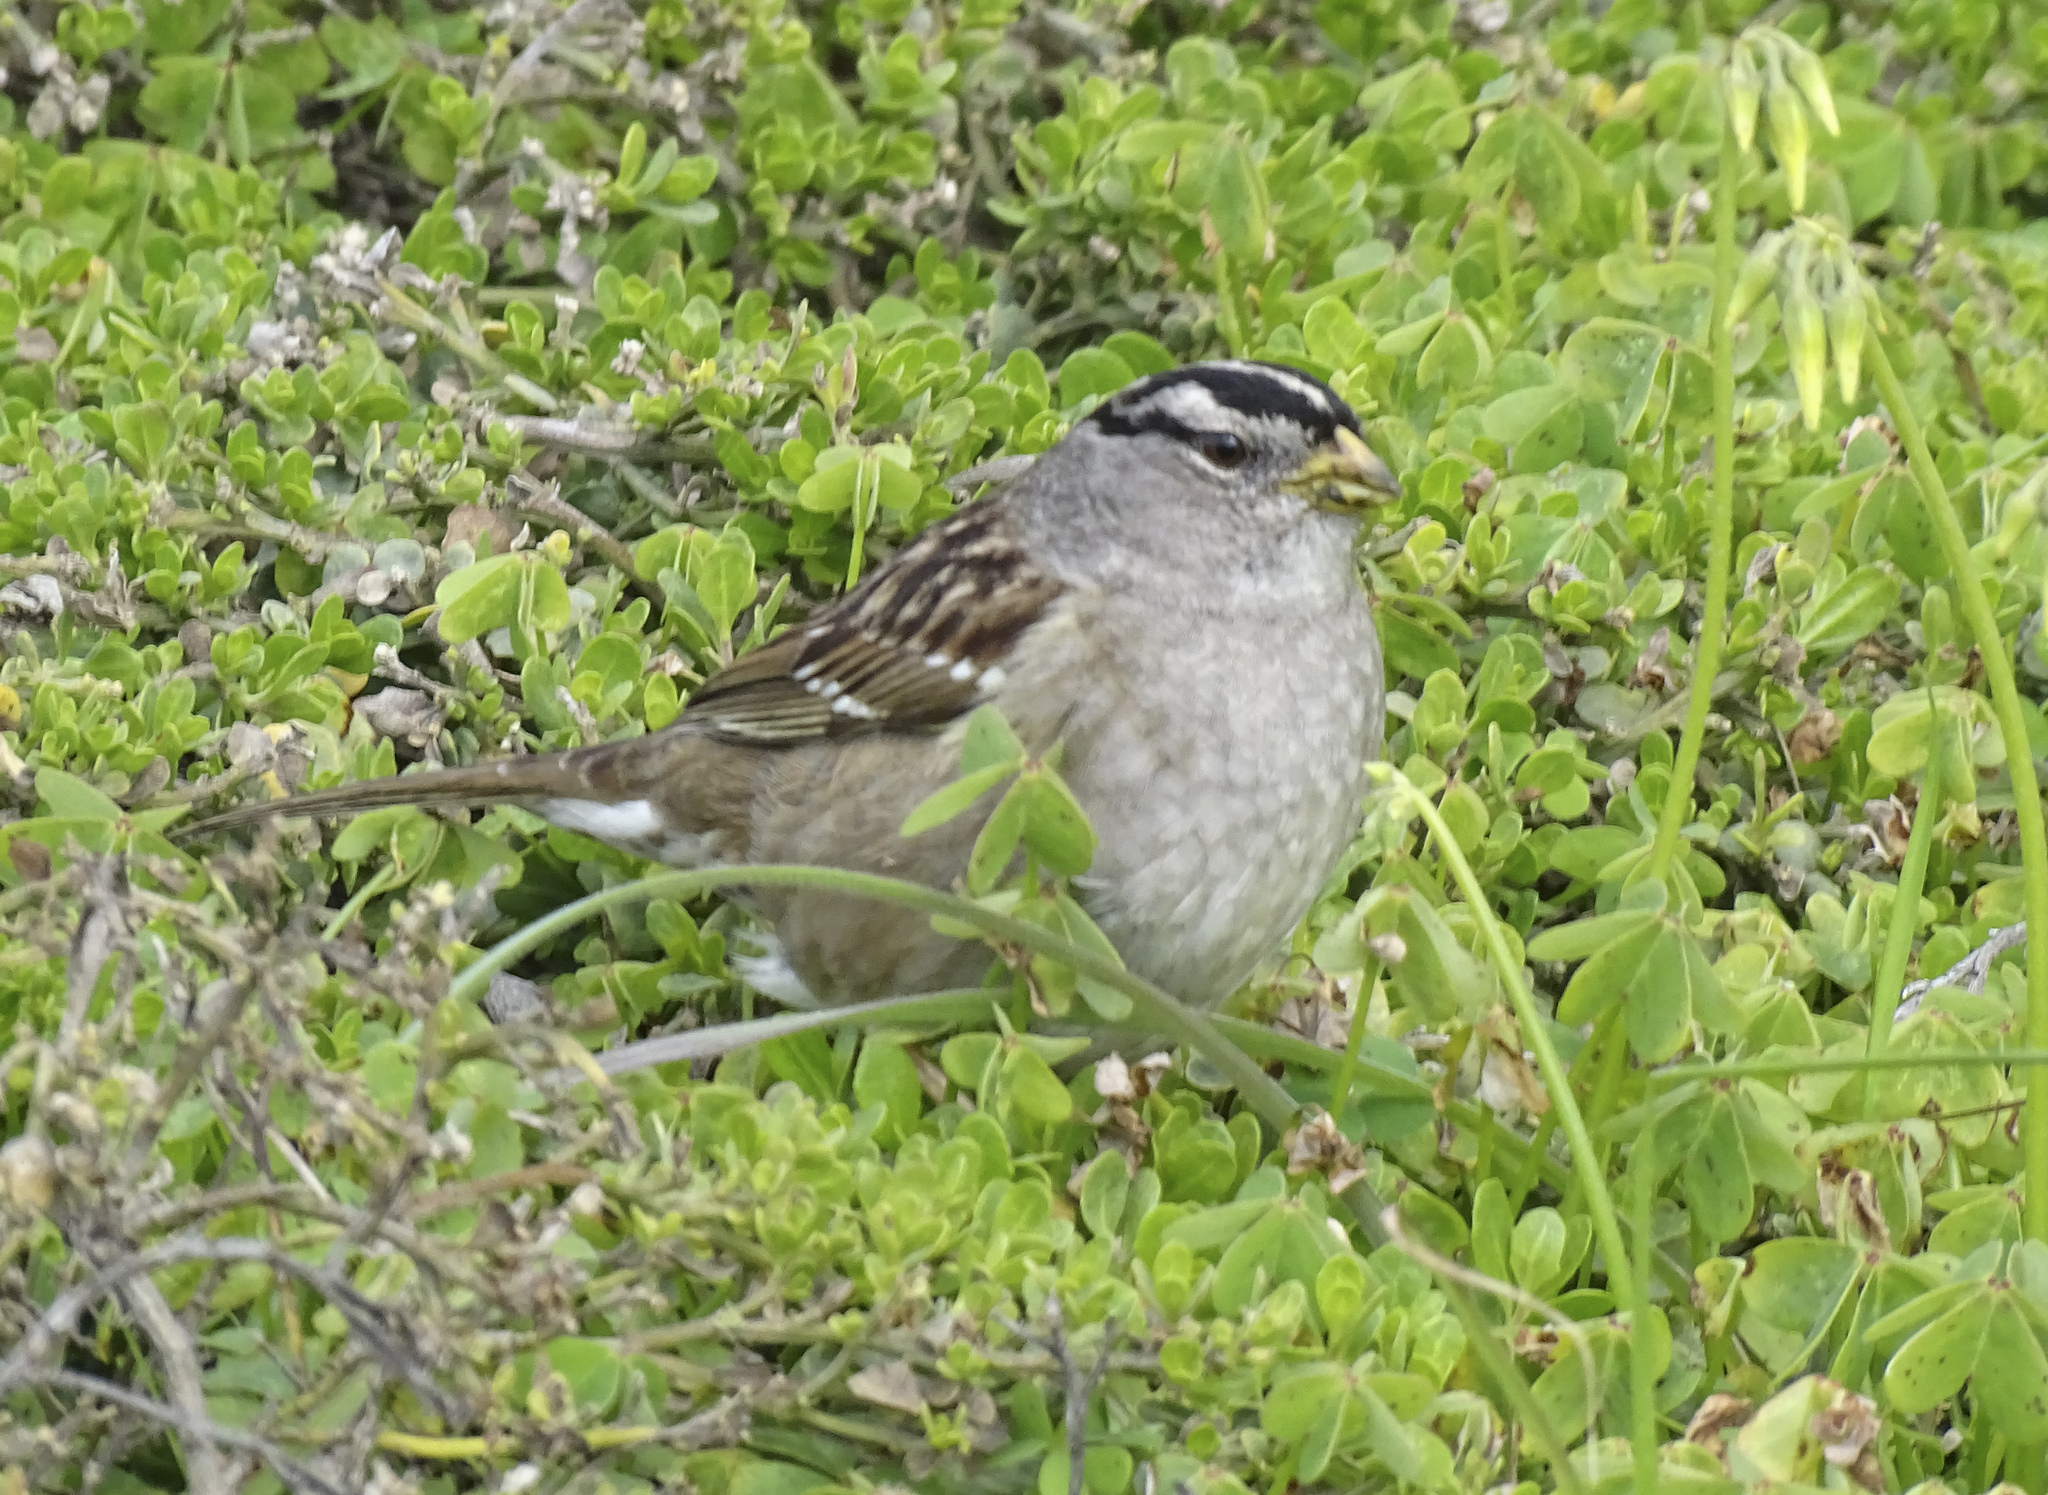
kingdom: Animalia
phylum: Chordata
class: Aves
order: Passeriformes
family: Passerellidae
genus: Zonotrichia
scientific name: Zonotrichia leucophrys
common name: White-crowned sparrow
